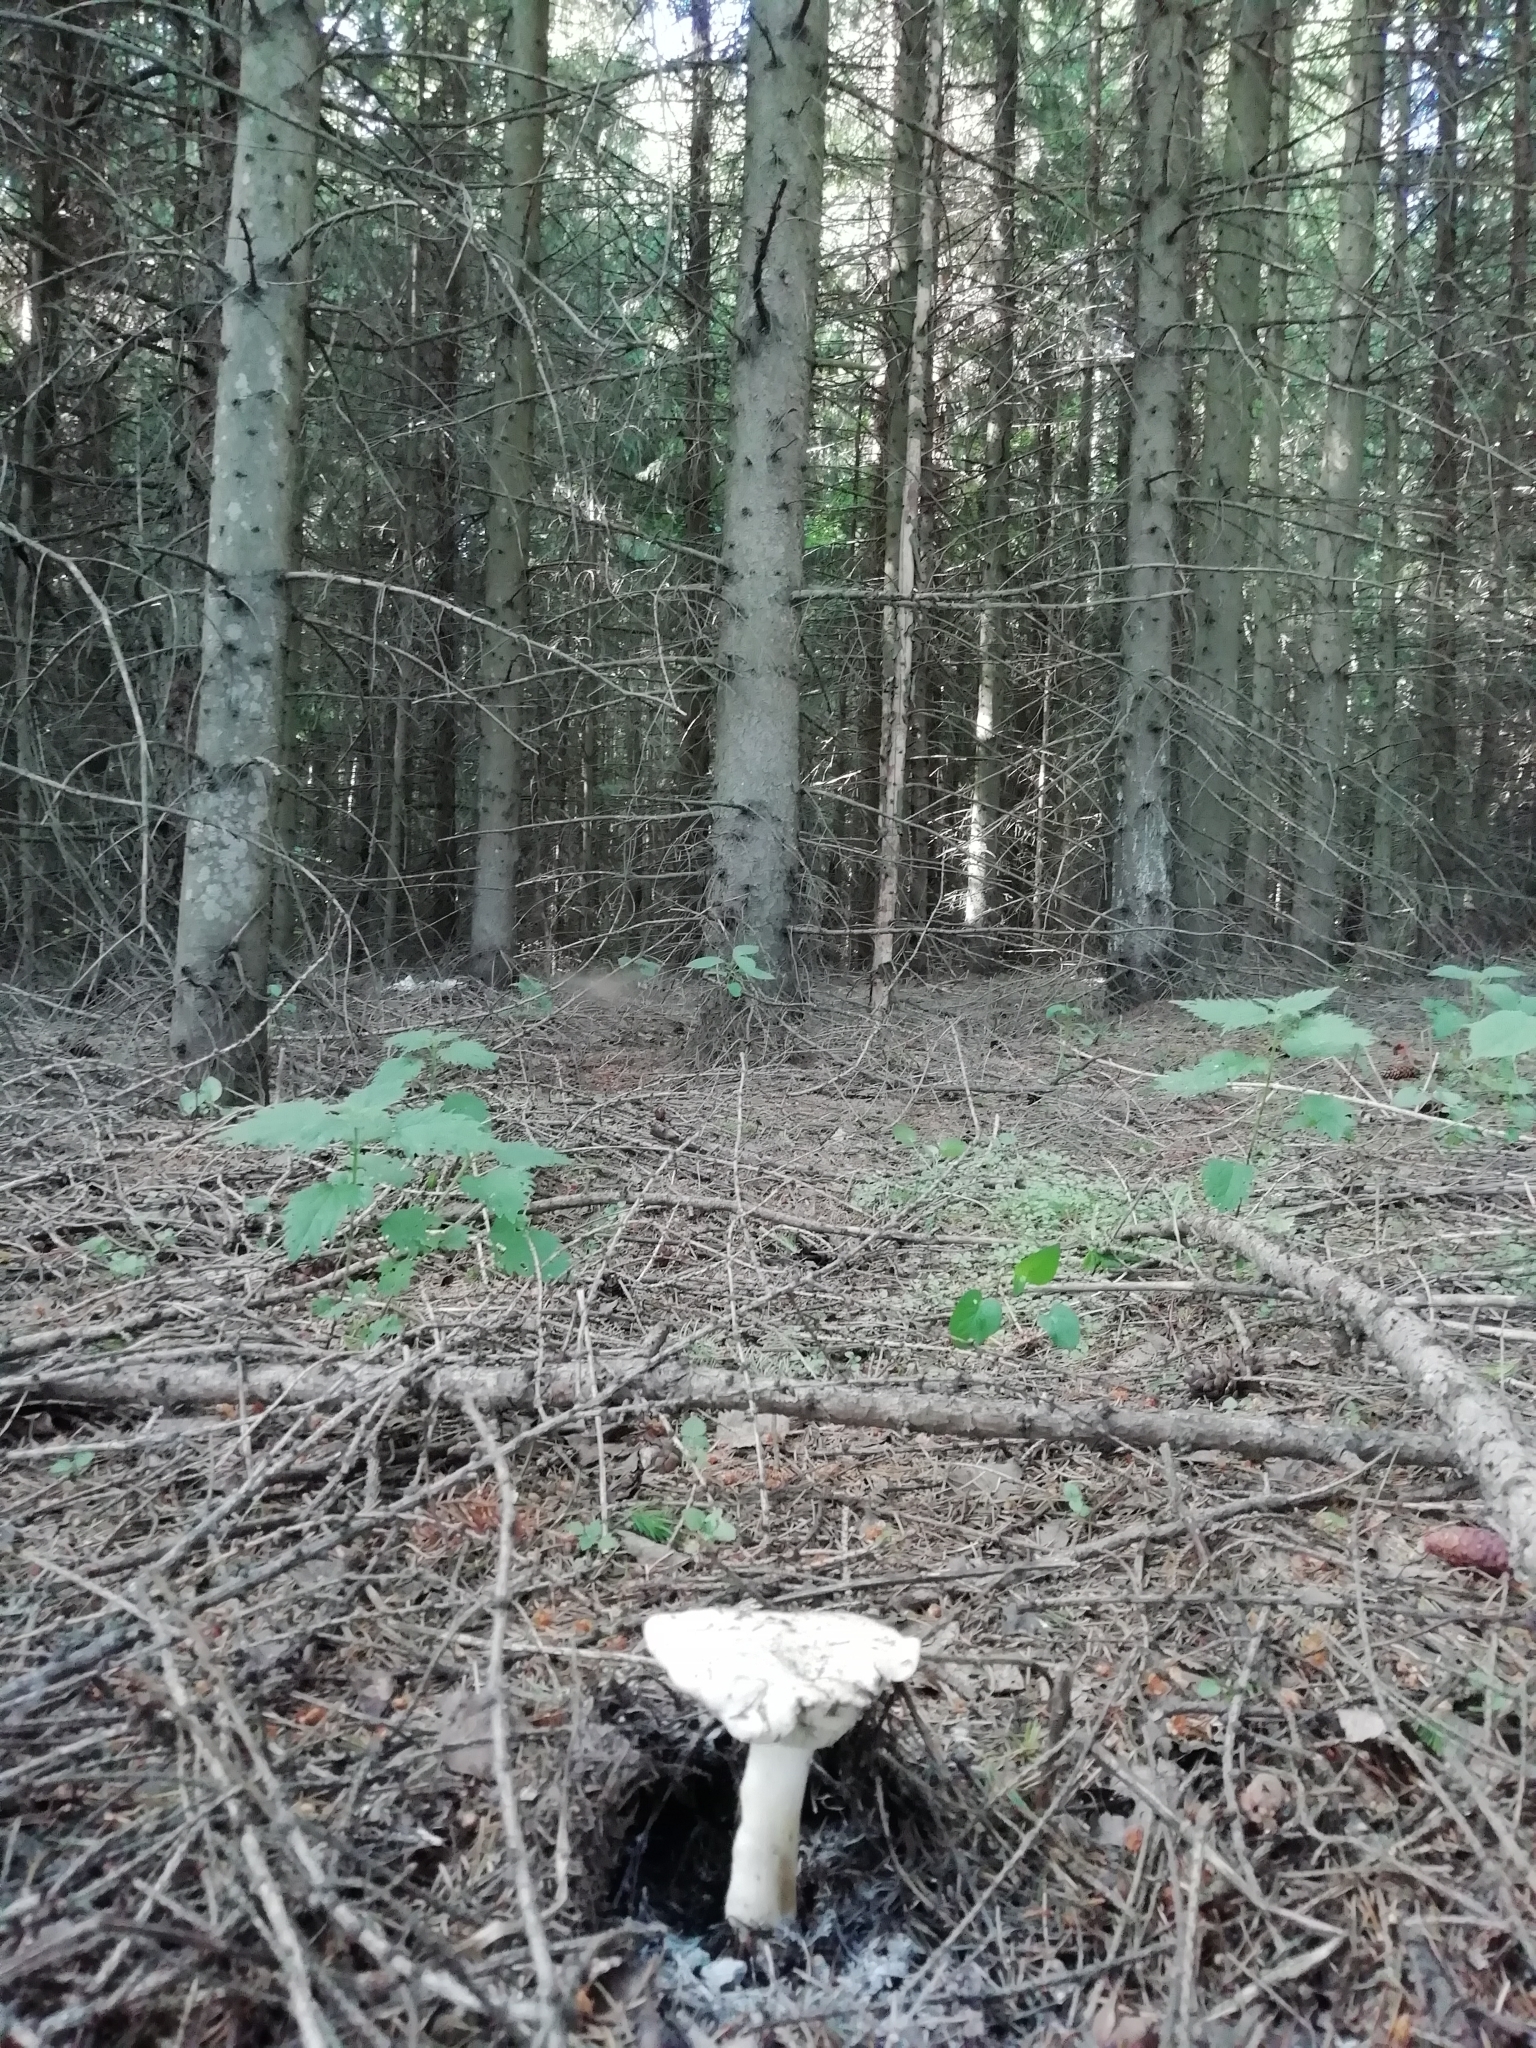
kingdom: Fungi
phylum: Basidiomycota
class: Agaricomycetes
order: Agaricales
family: Lyophyllaceae
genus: Calocybe
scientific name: Calocybe gambosa
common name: St. george's mushroom
